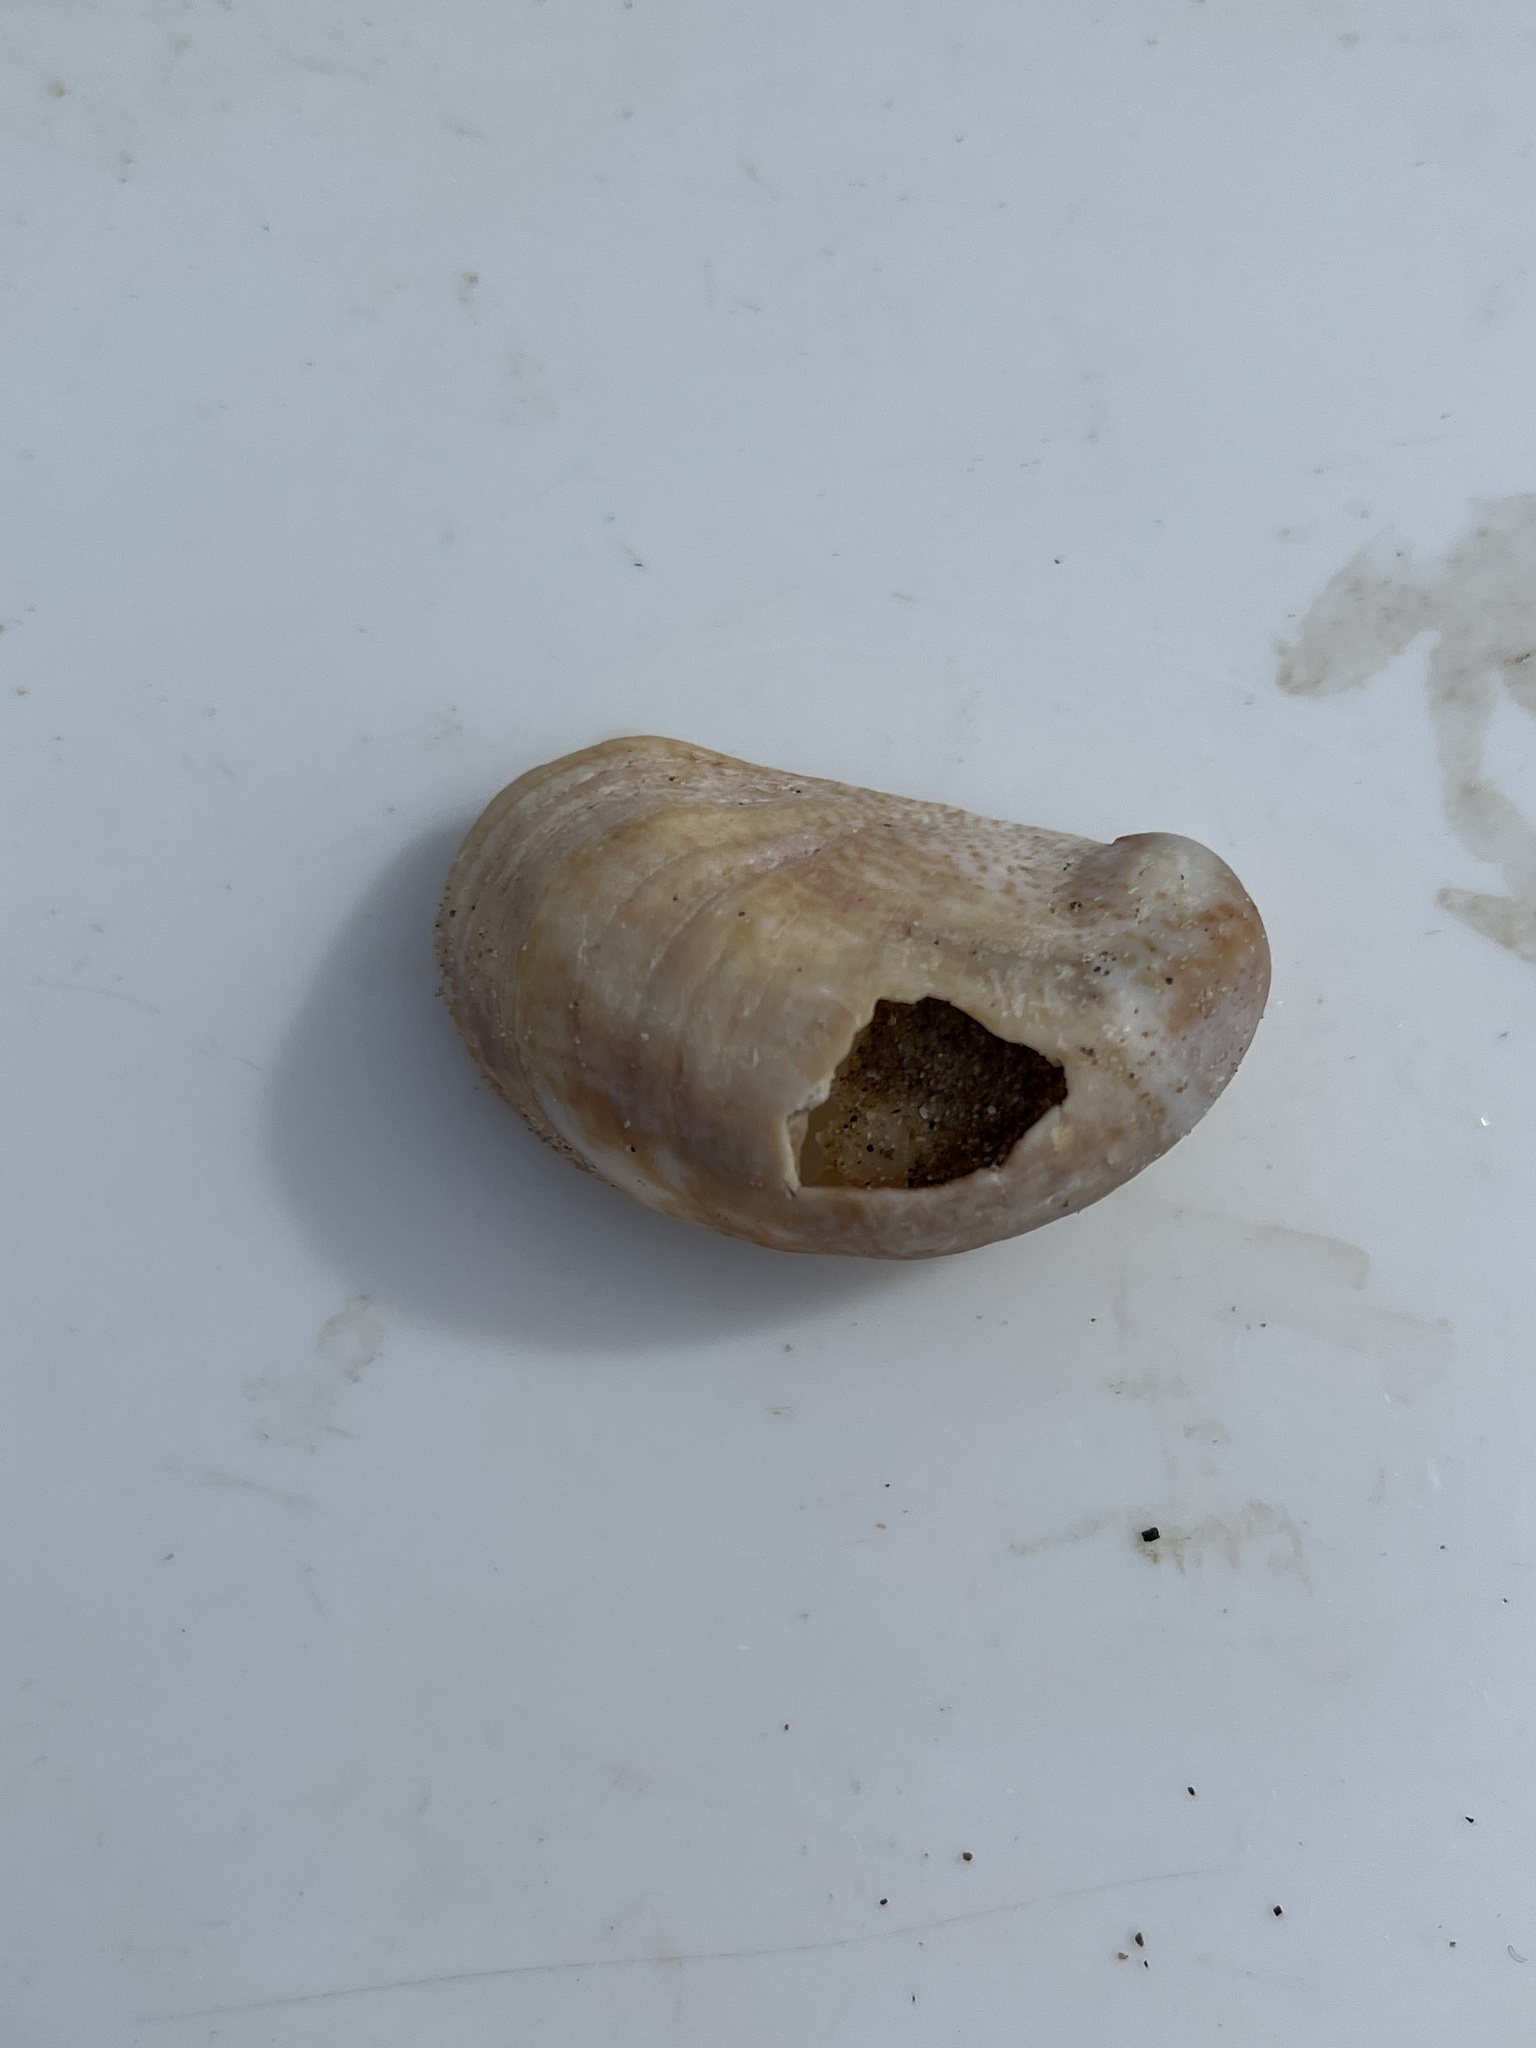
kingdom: Animalia
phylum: Mollusca
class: Gastropoda
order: Littorinimorpha
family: Calyptraeidae
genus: Crepidula
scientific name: Crepidula fornicata
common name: Slipper limpet
